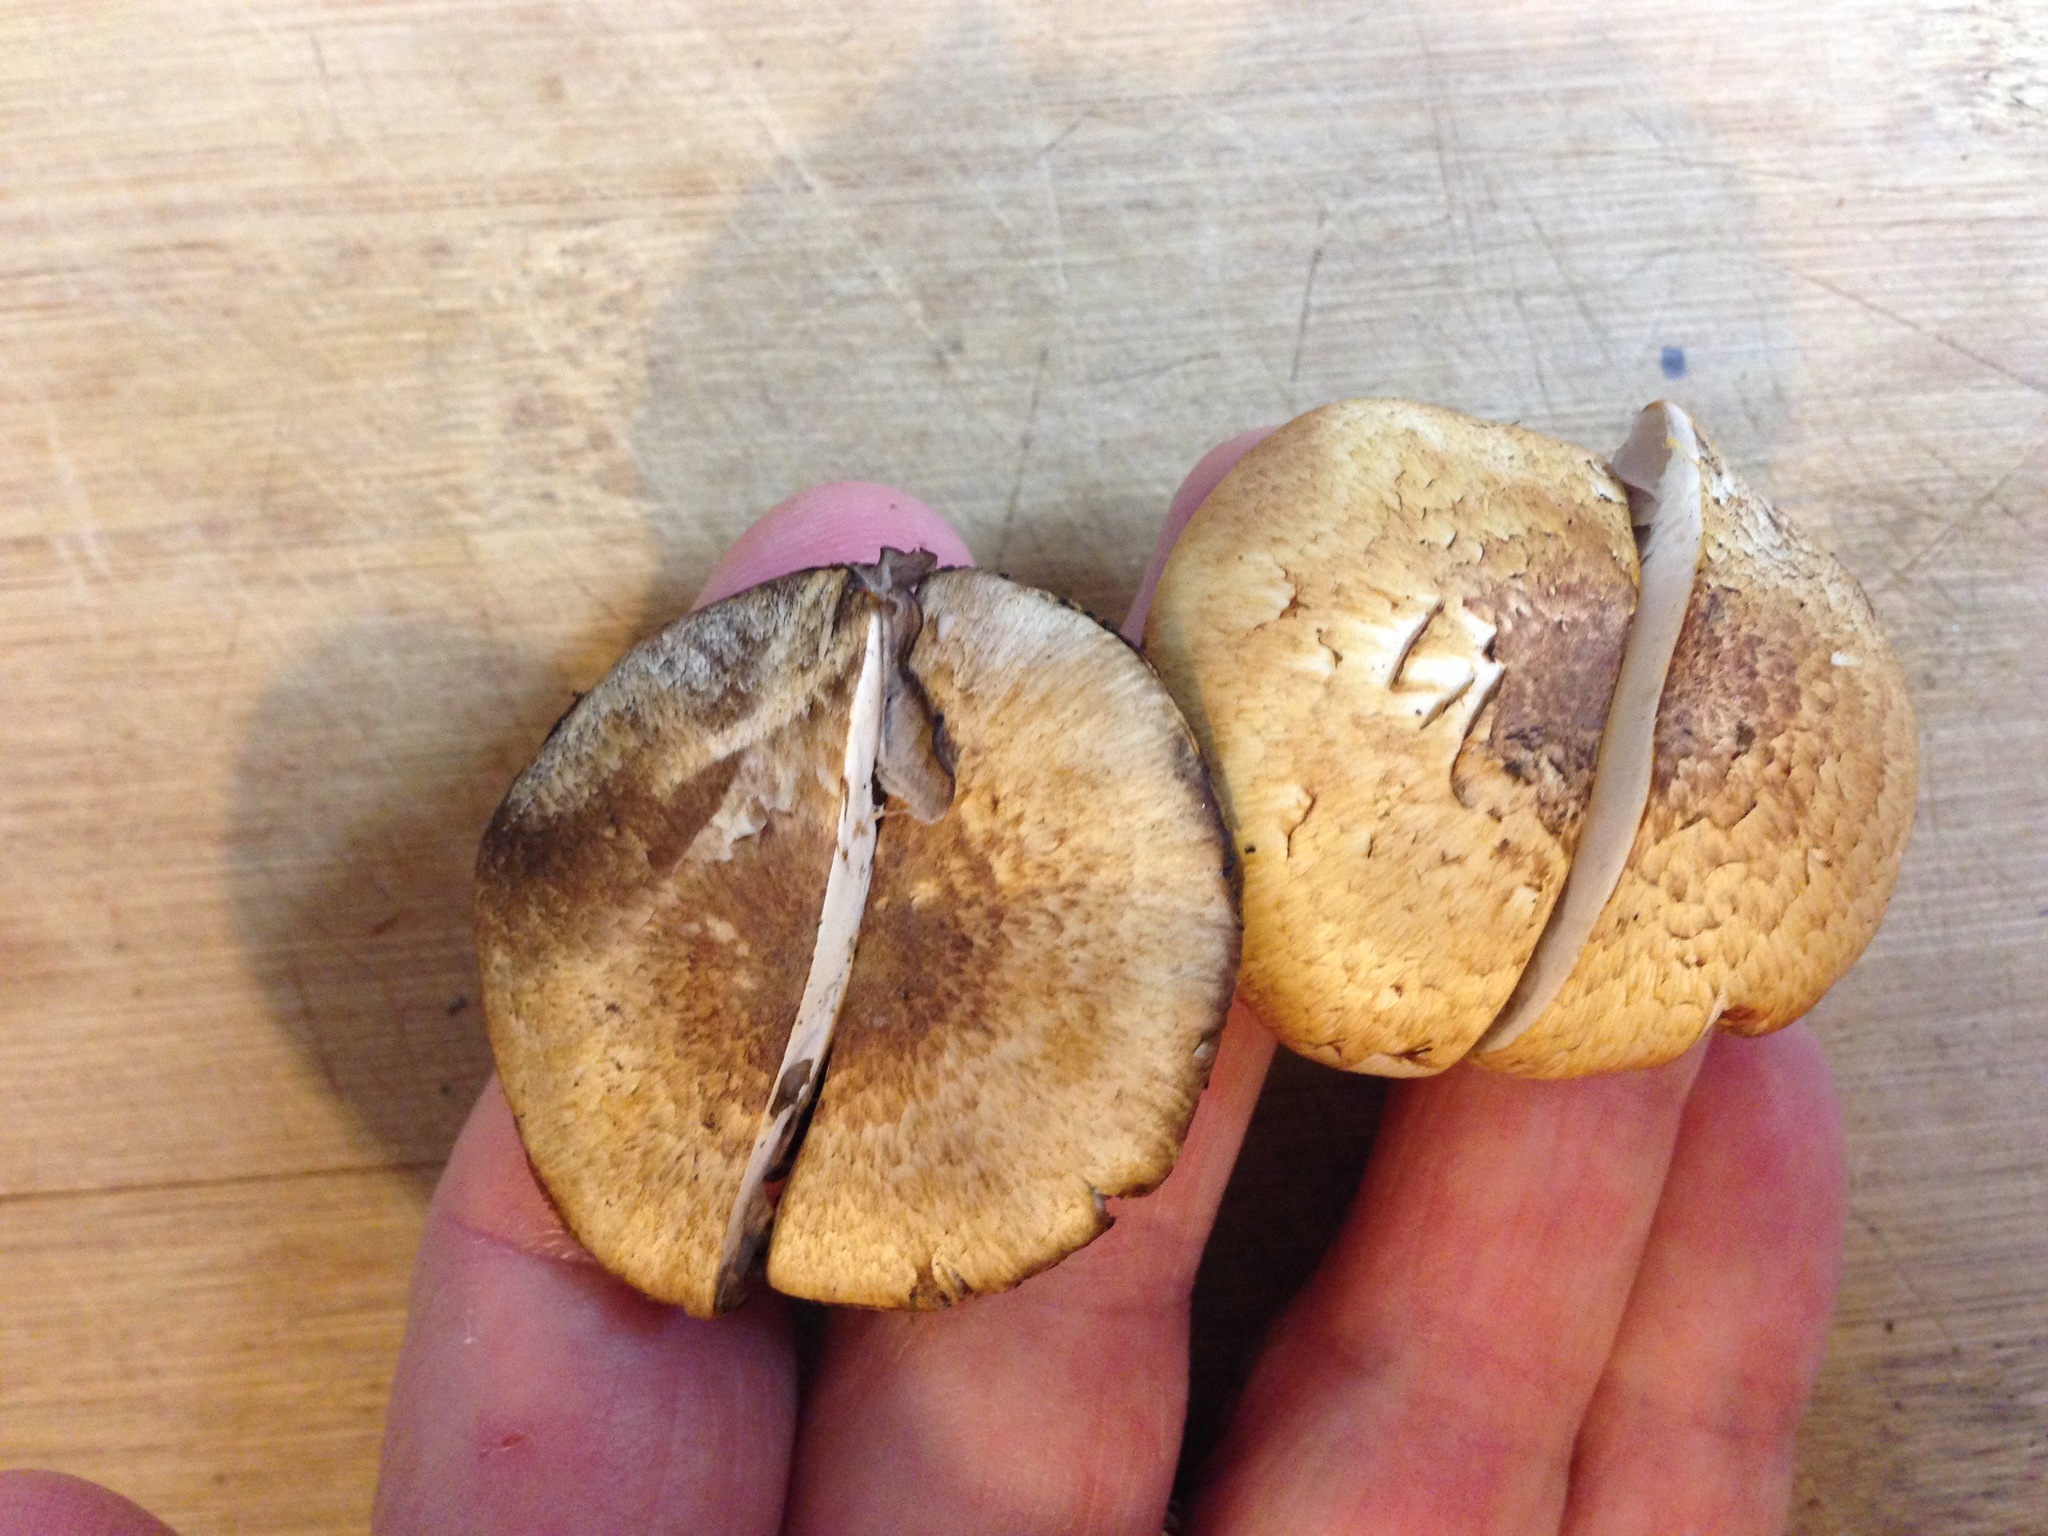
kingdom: Fungi
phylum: Basidiomycota
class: Agaricomycetes
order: Agaricales
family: Agaricaceae
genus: Agaricus
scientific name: Agaricus kerriganii
